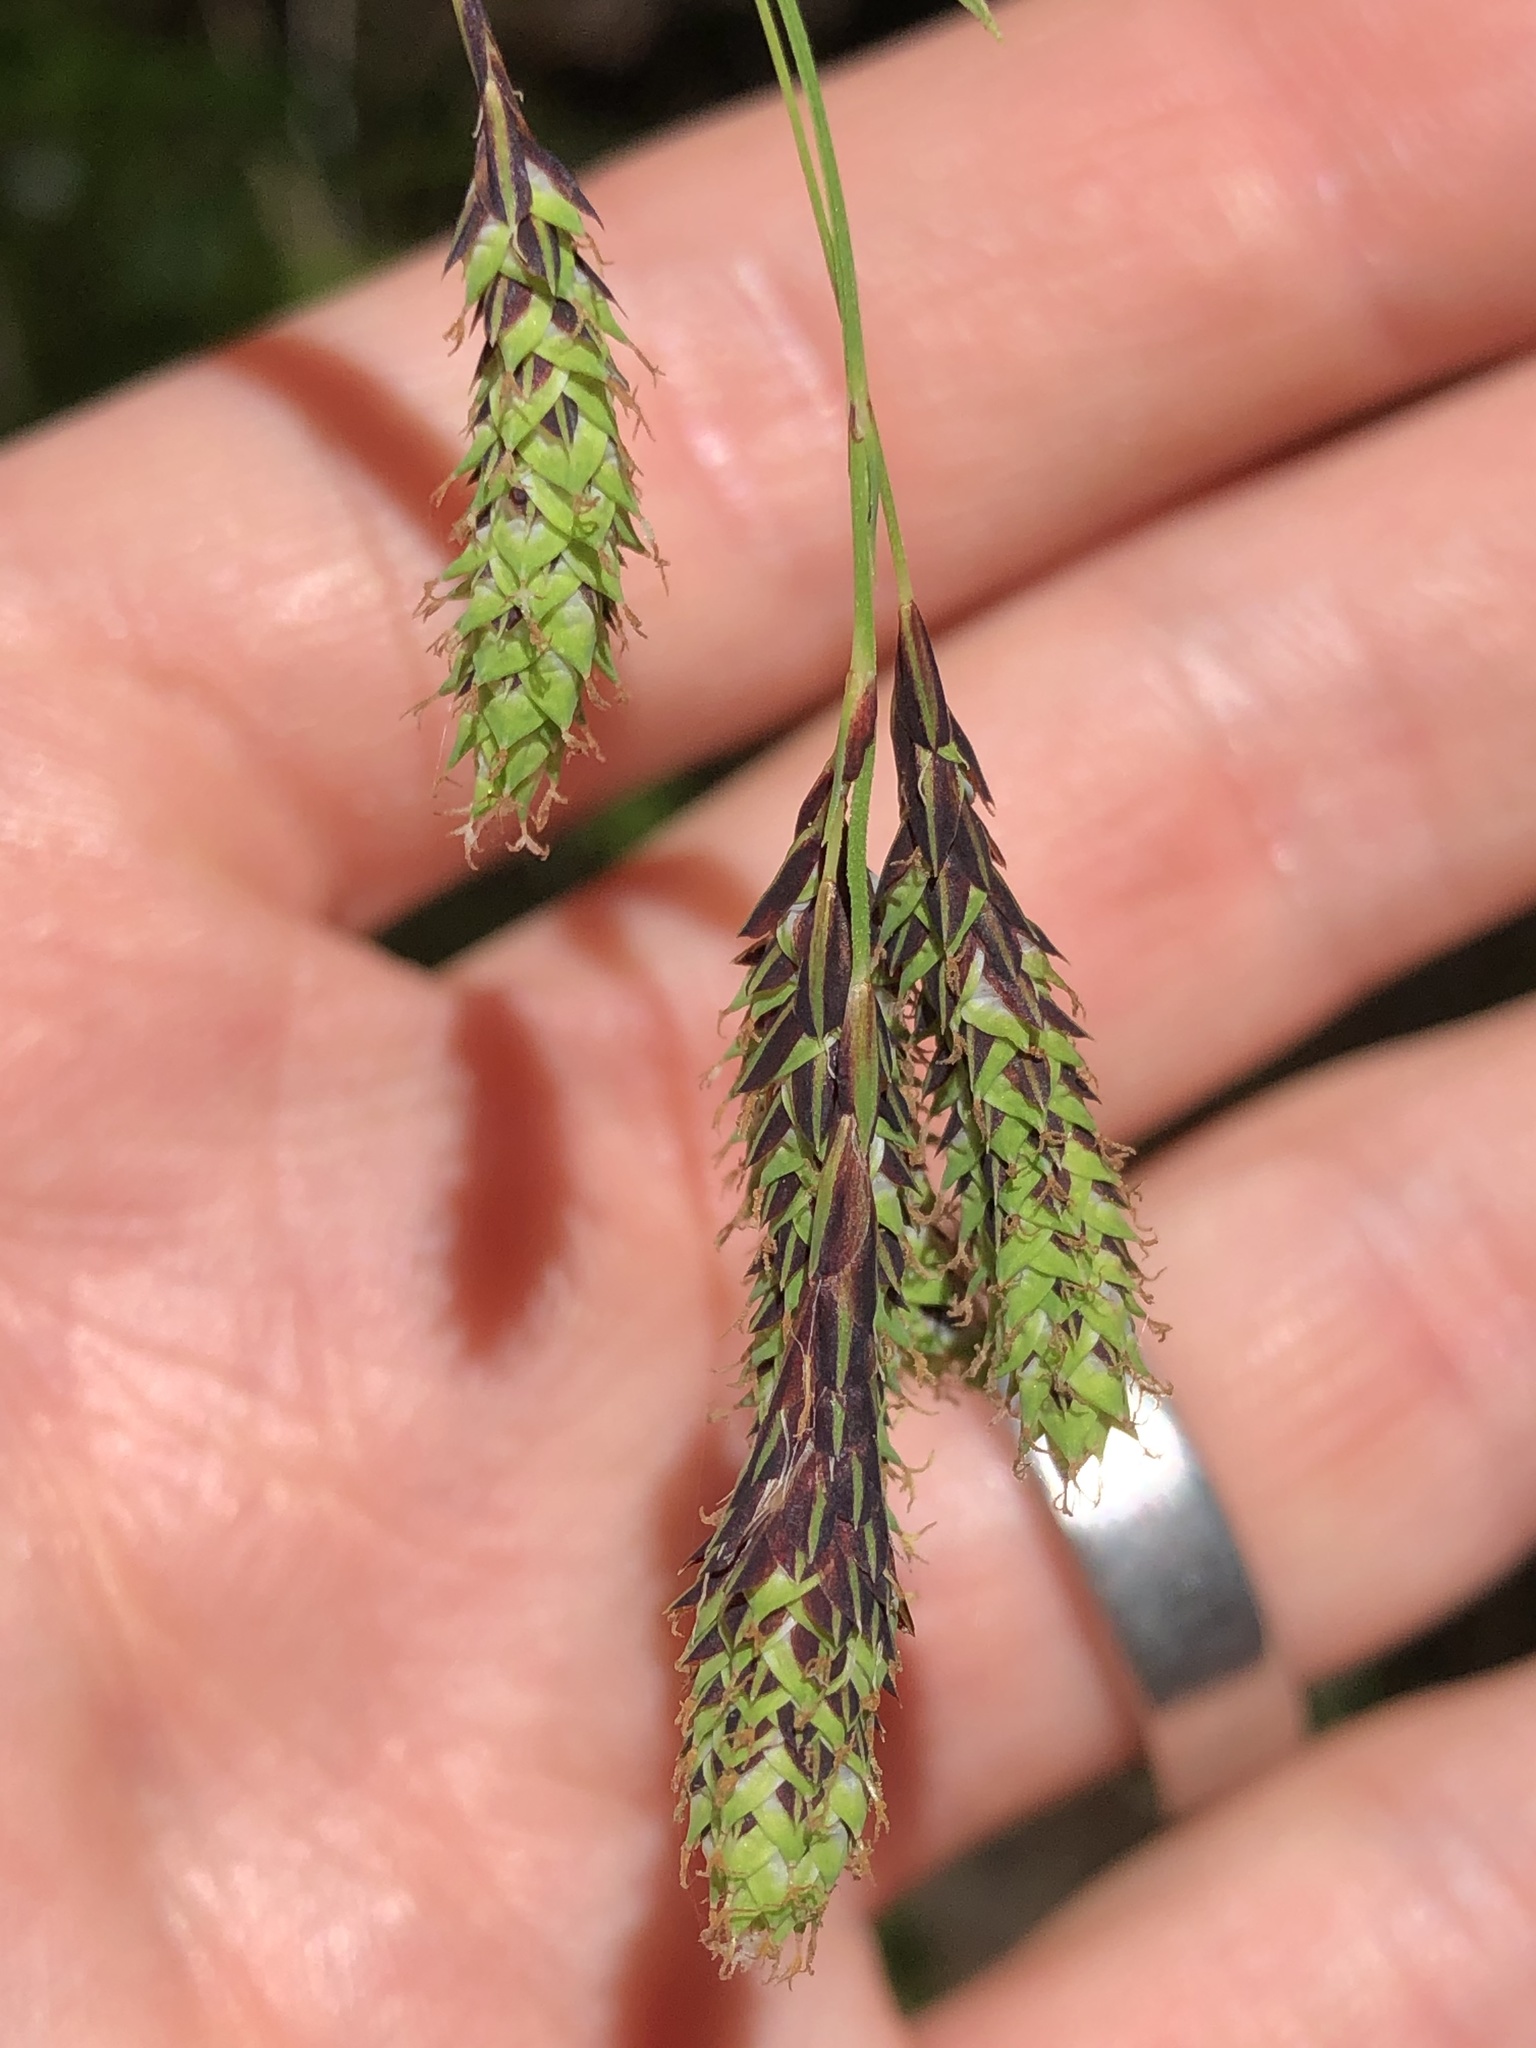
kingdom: Plantae
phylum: Tracheophyta
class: Liliopsida
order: Poales
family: Cyperaceae
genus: Carex
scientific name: Carex mertensii
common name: Mertens' sedge
